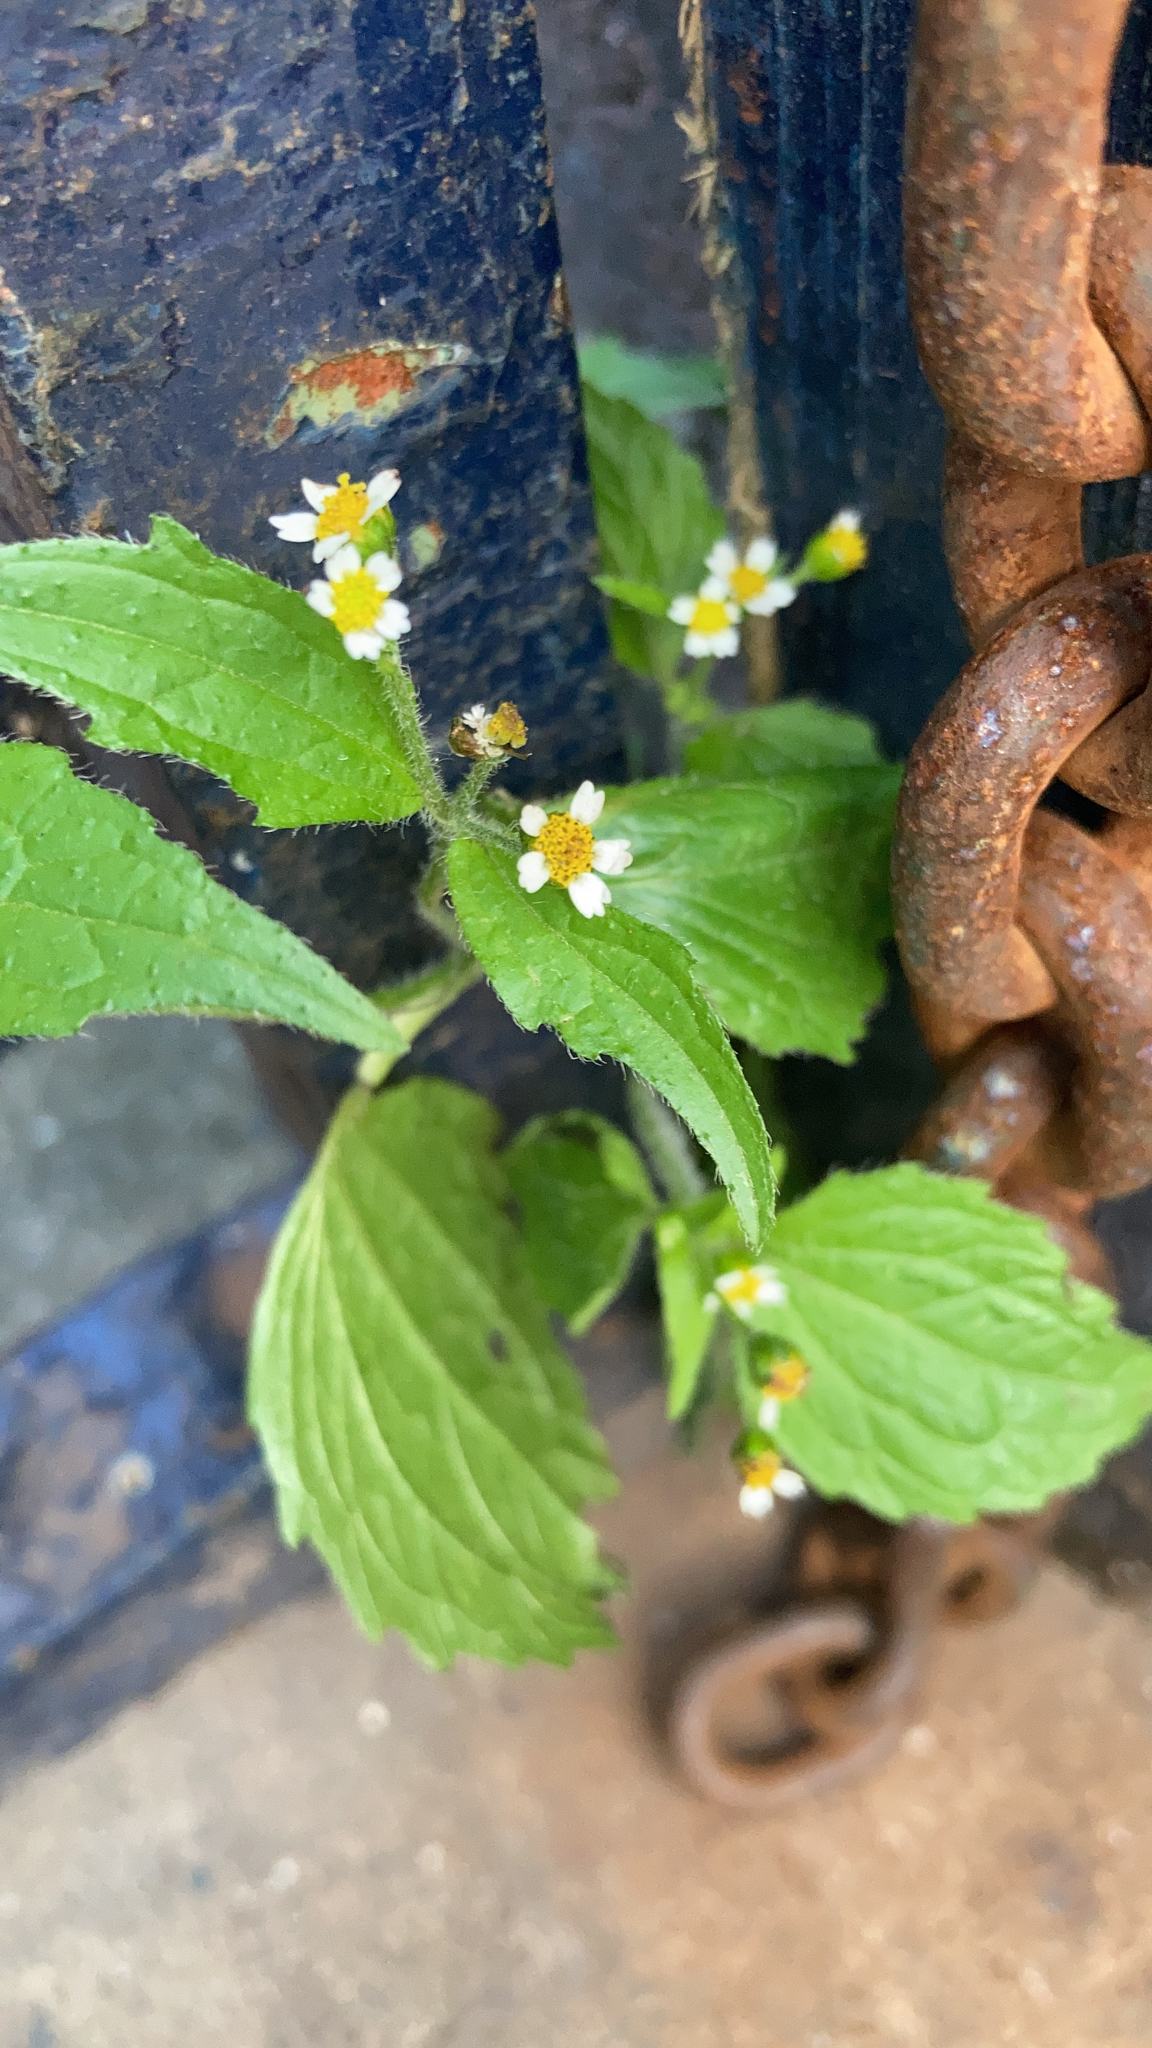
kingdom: Plantae
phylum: Tracheophyta
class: Magnoliopsida
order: Asterales
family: Asteraceae
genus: Galinsoga
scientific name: Galinsoga quadriradiata
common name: Shaggy soldier
